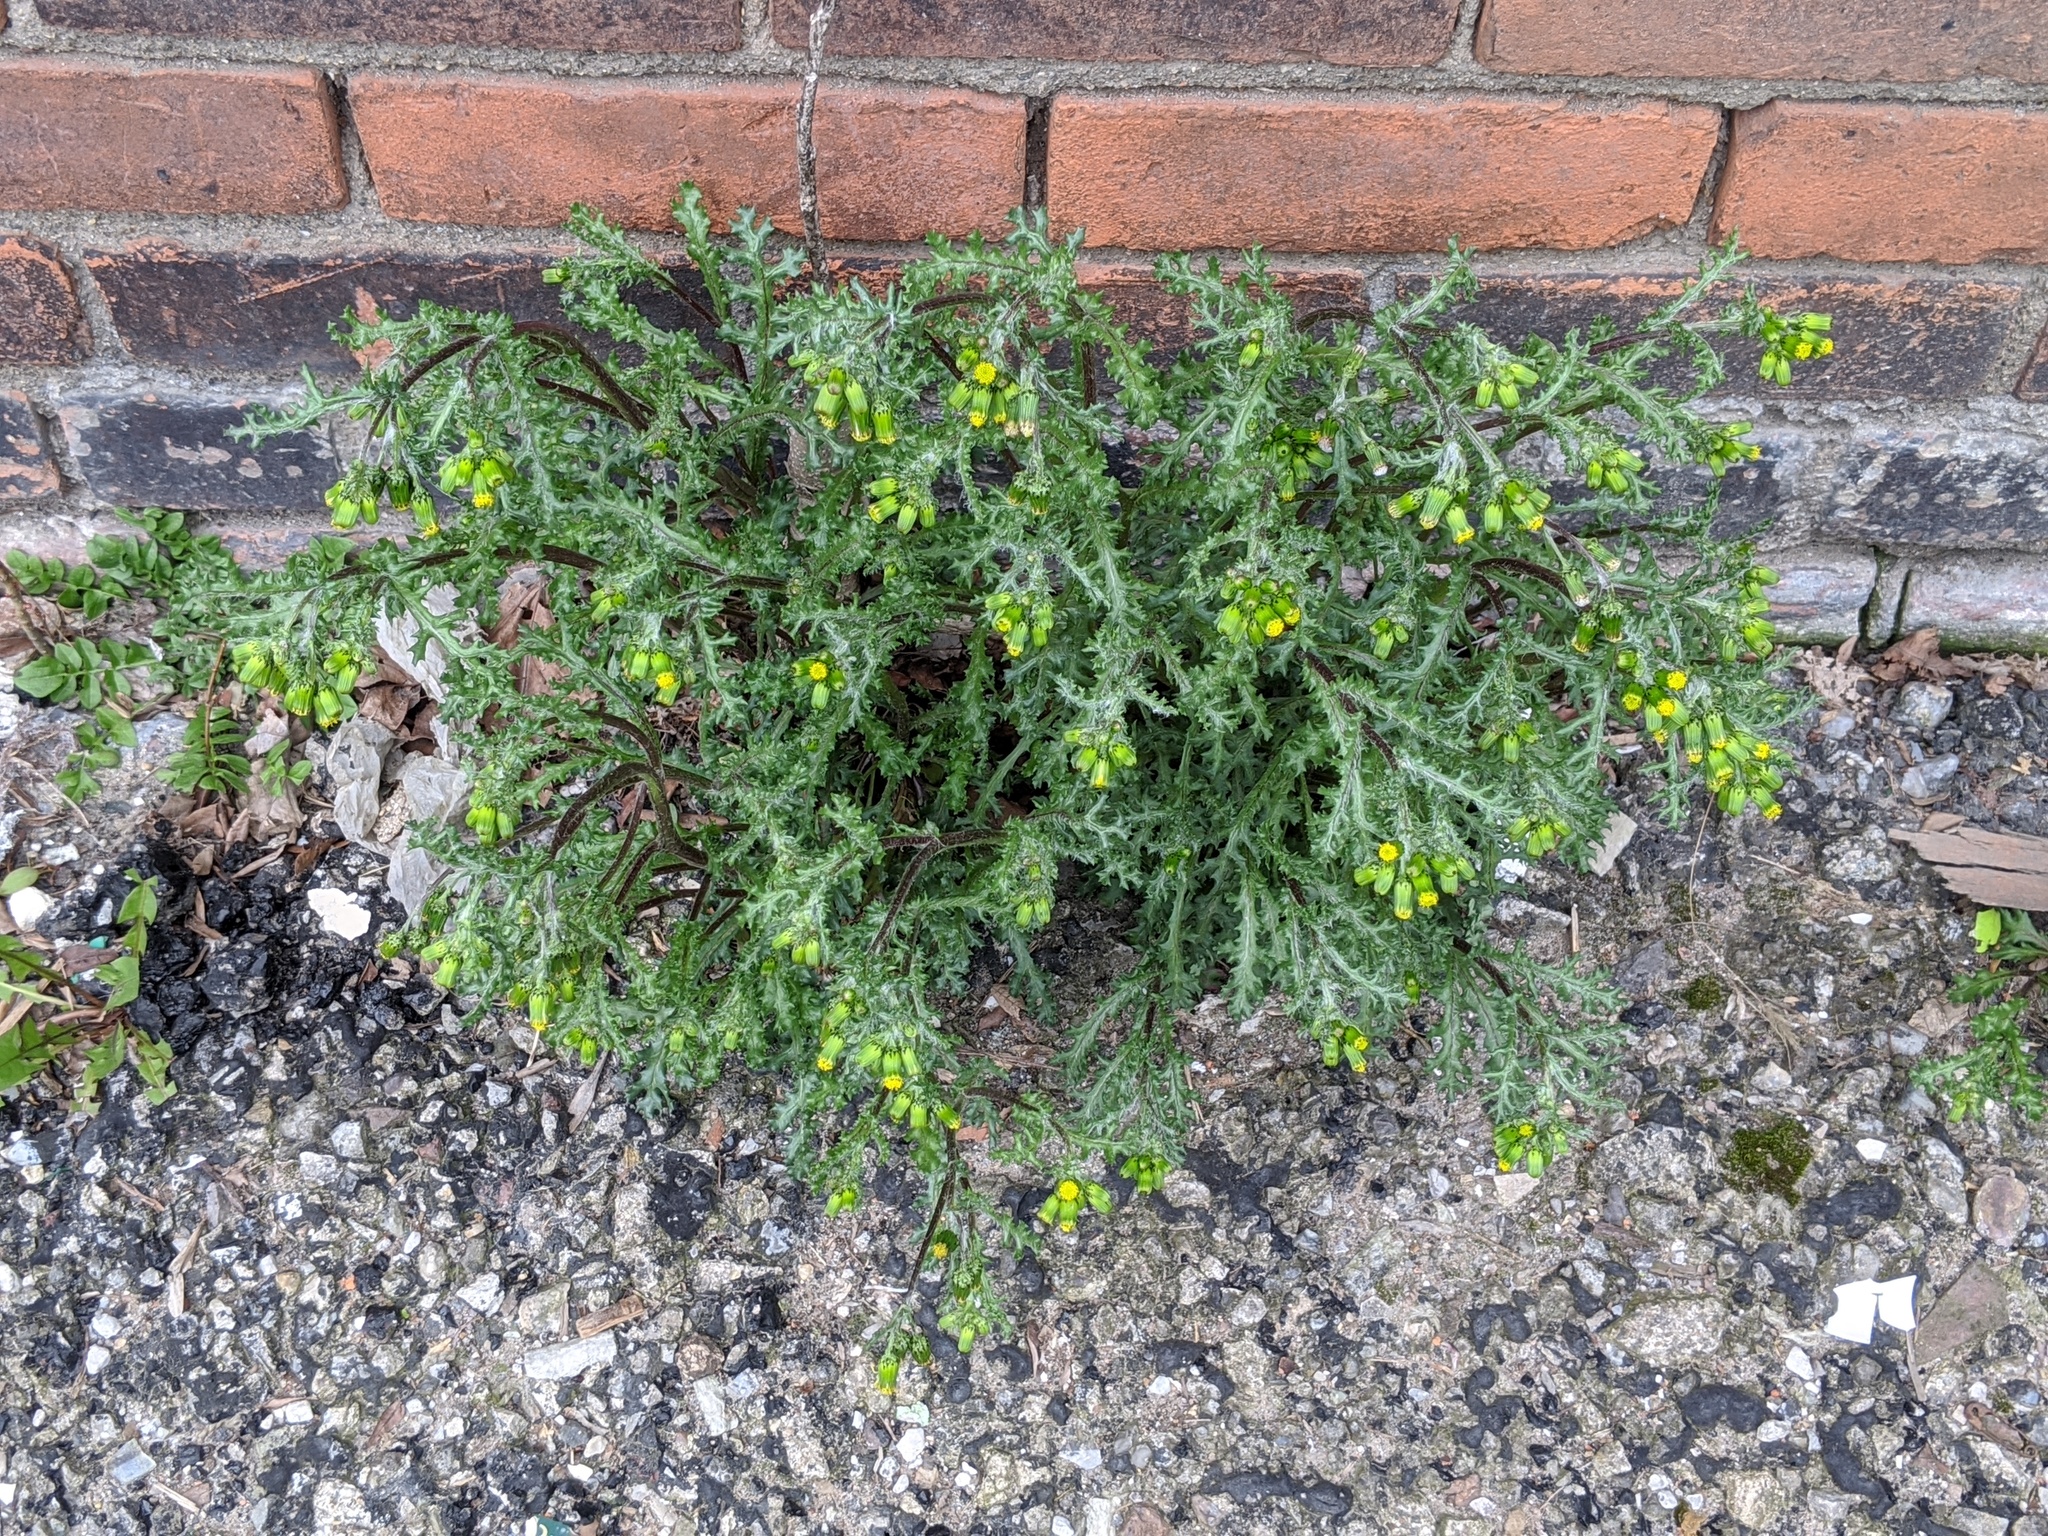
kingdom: Plantae
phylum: Tracheophyta
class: Magnoliopsida
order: Asterales
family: Asteraceae
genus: Senecio
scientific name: Senecio vulgaris
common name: Old-man-in-the-spring
